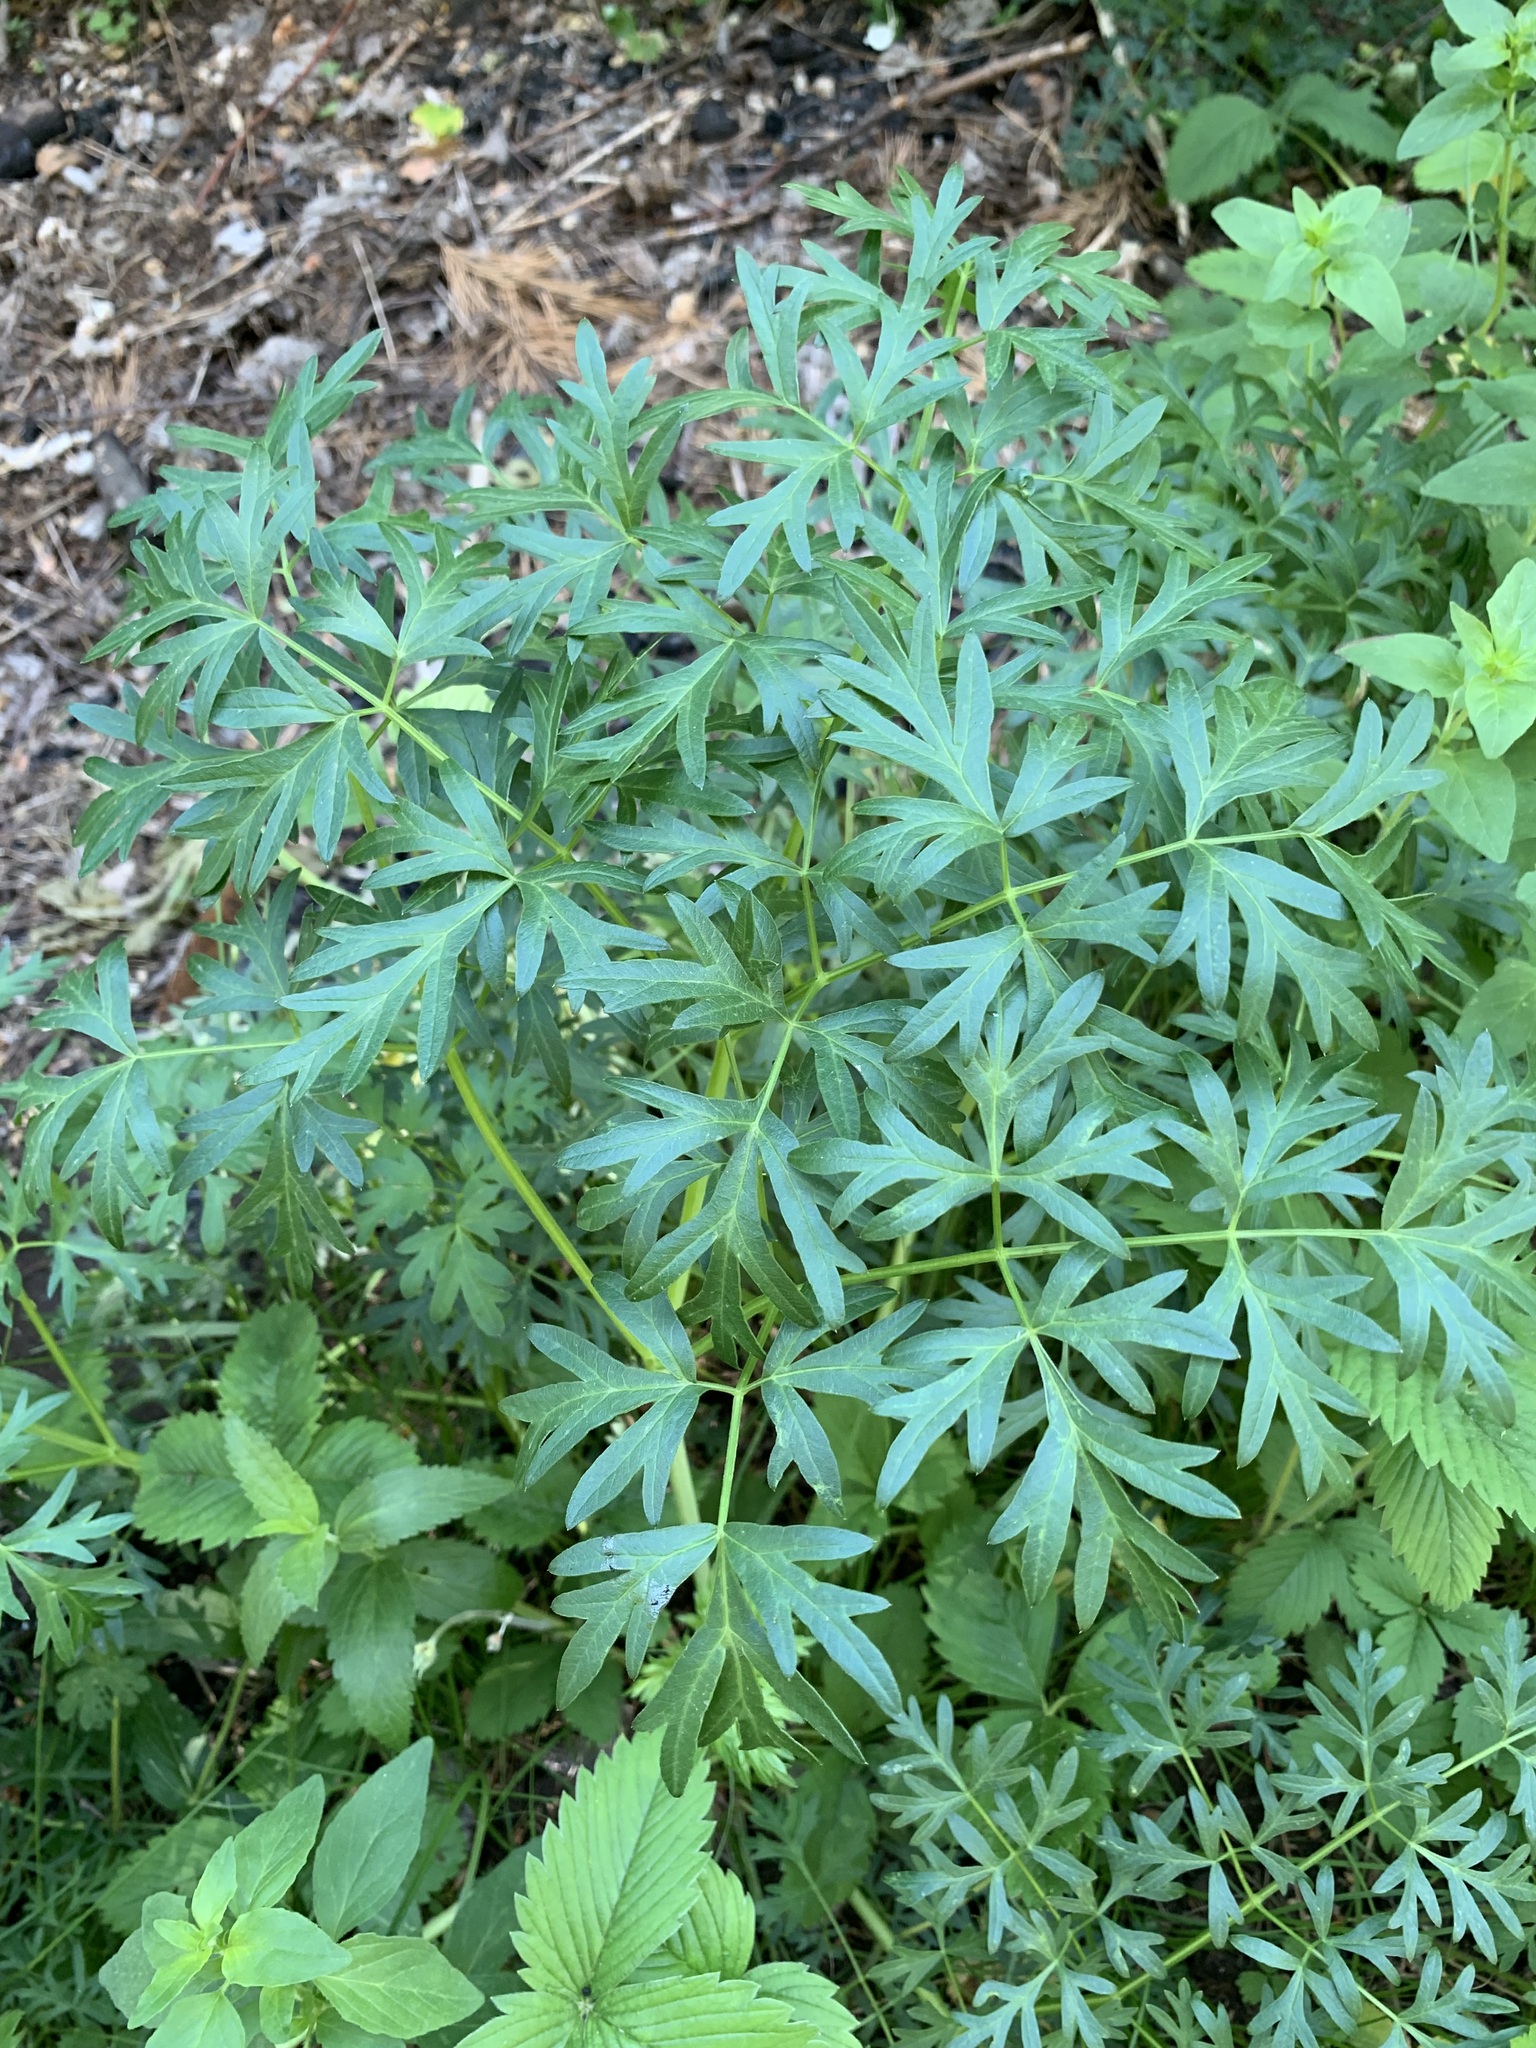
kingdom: Plantae
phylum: Tracheophyta
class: Magnoliopsida
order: Apiales
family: Apiaceae
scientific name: Apiaceae
